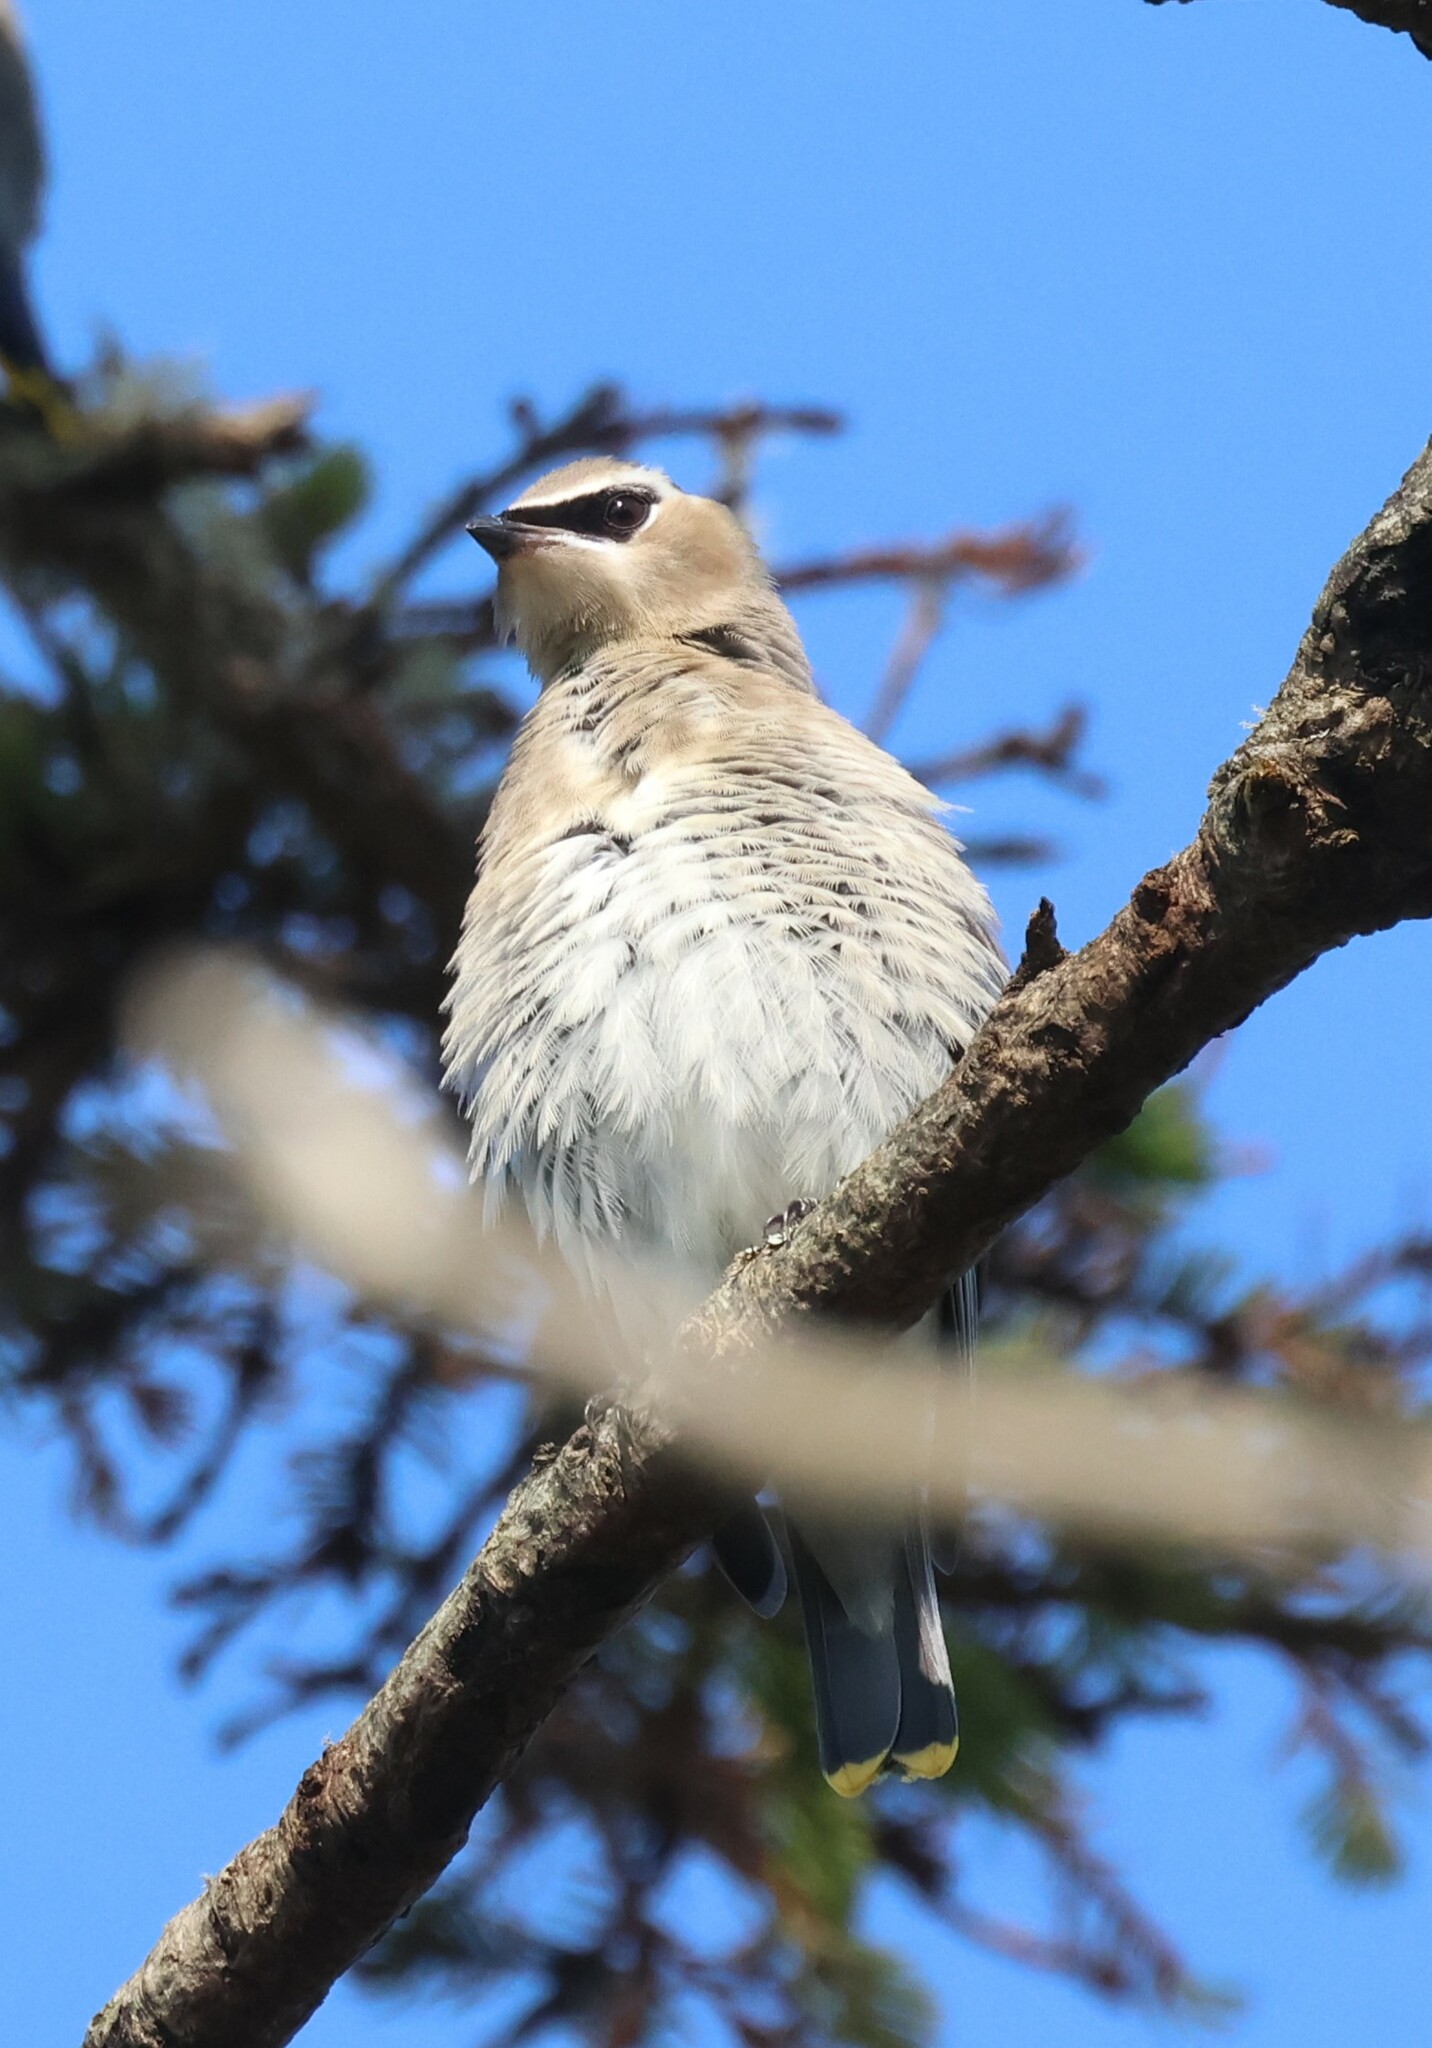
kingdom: Animalia
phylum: Chordata
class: Aves
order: Passeriformes
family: Bombycillidae
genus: Bombycilla
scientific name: Bombycilla cedrorum
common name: Cedar waxwing
